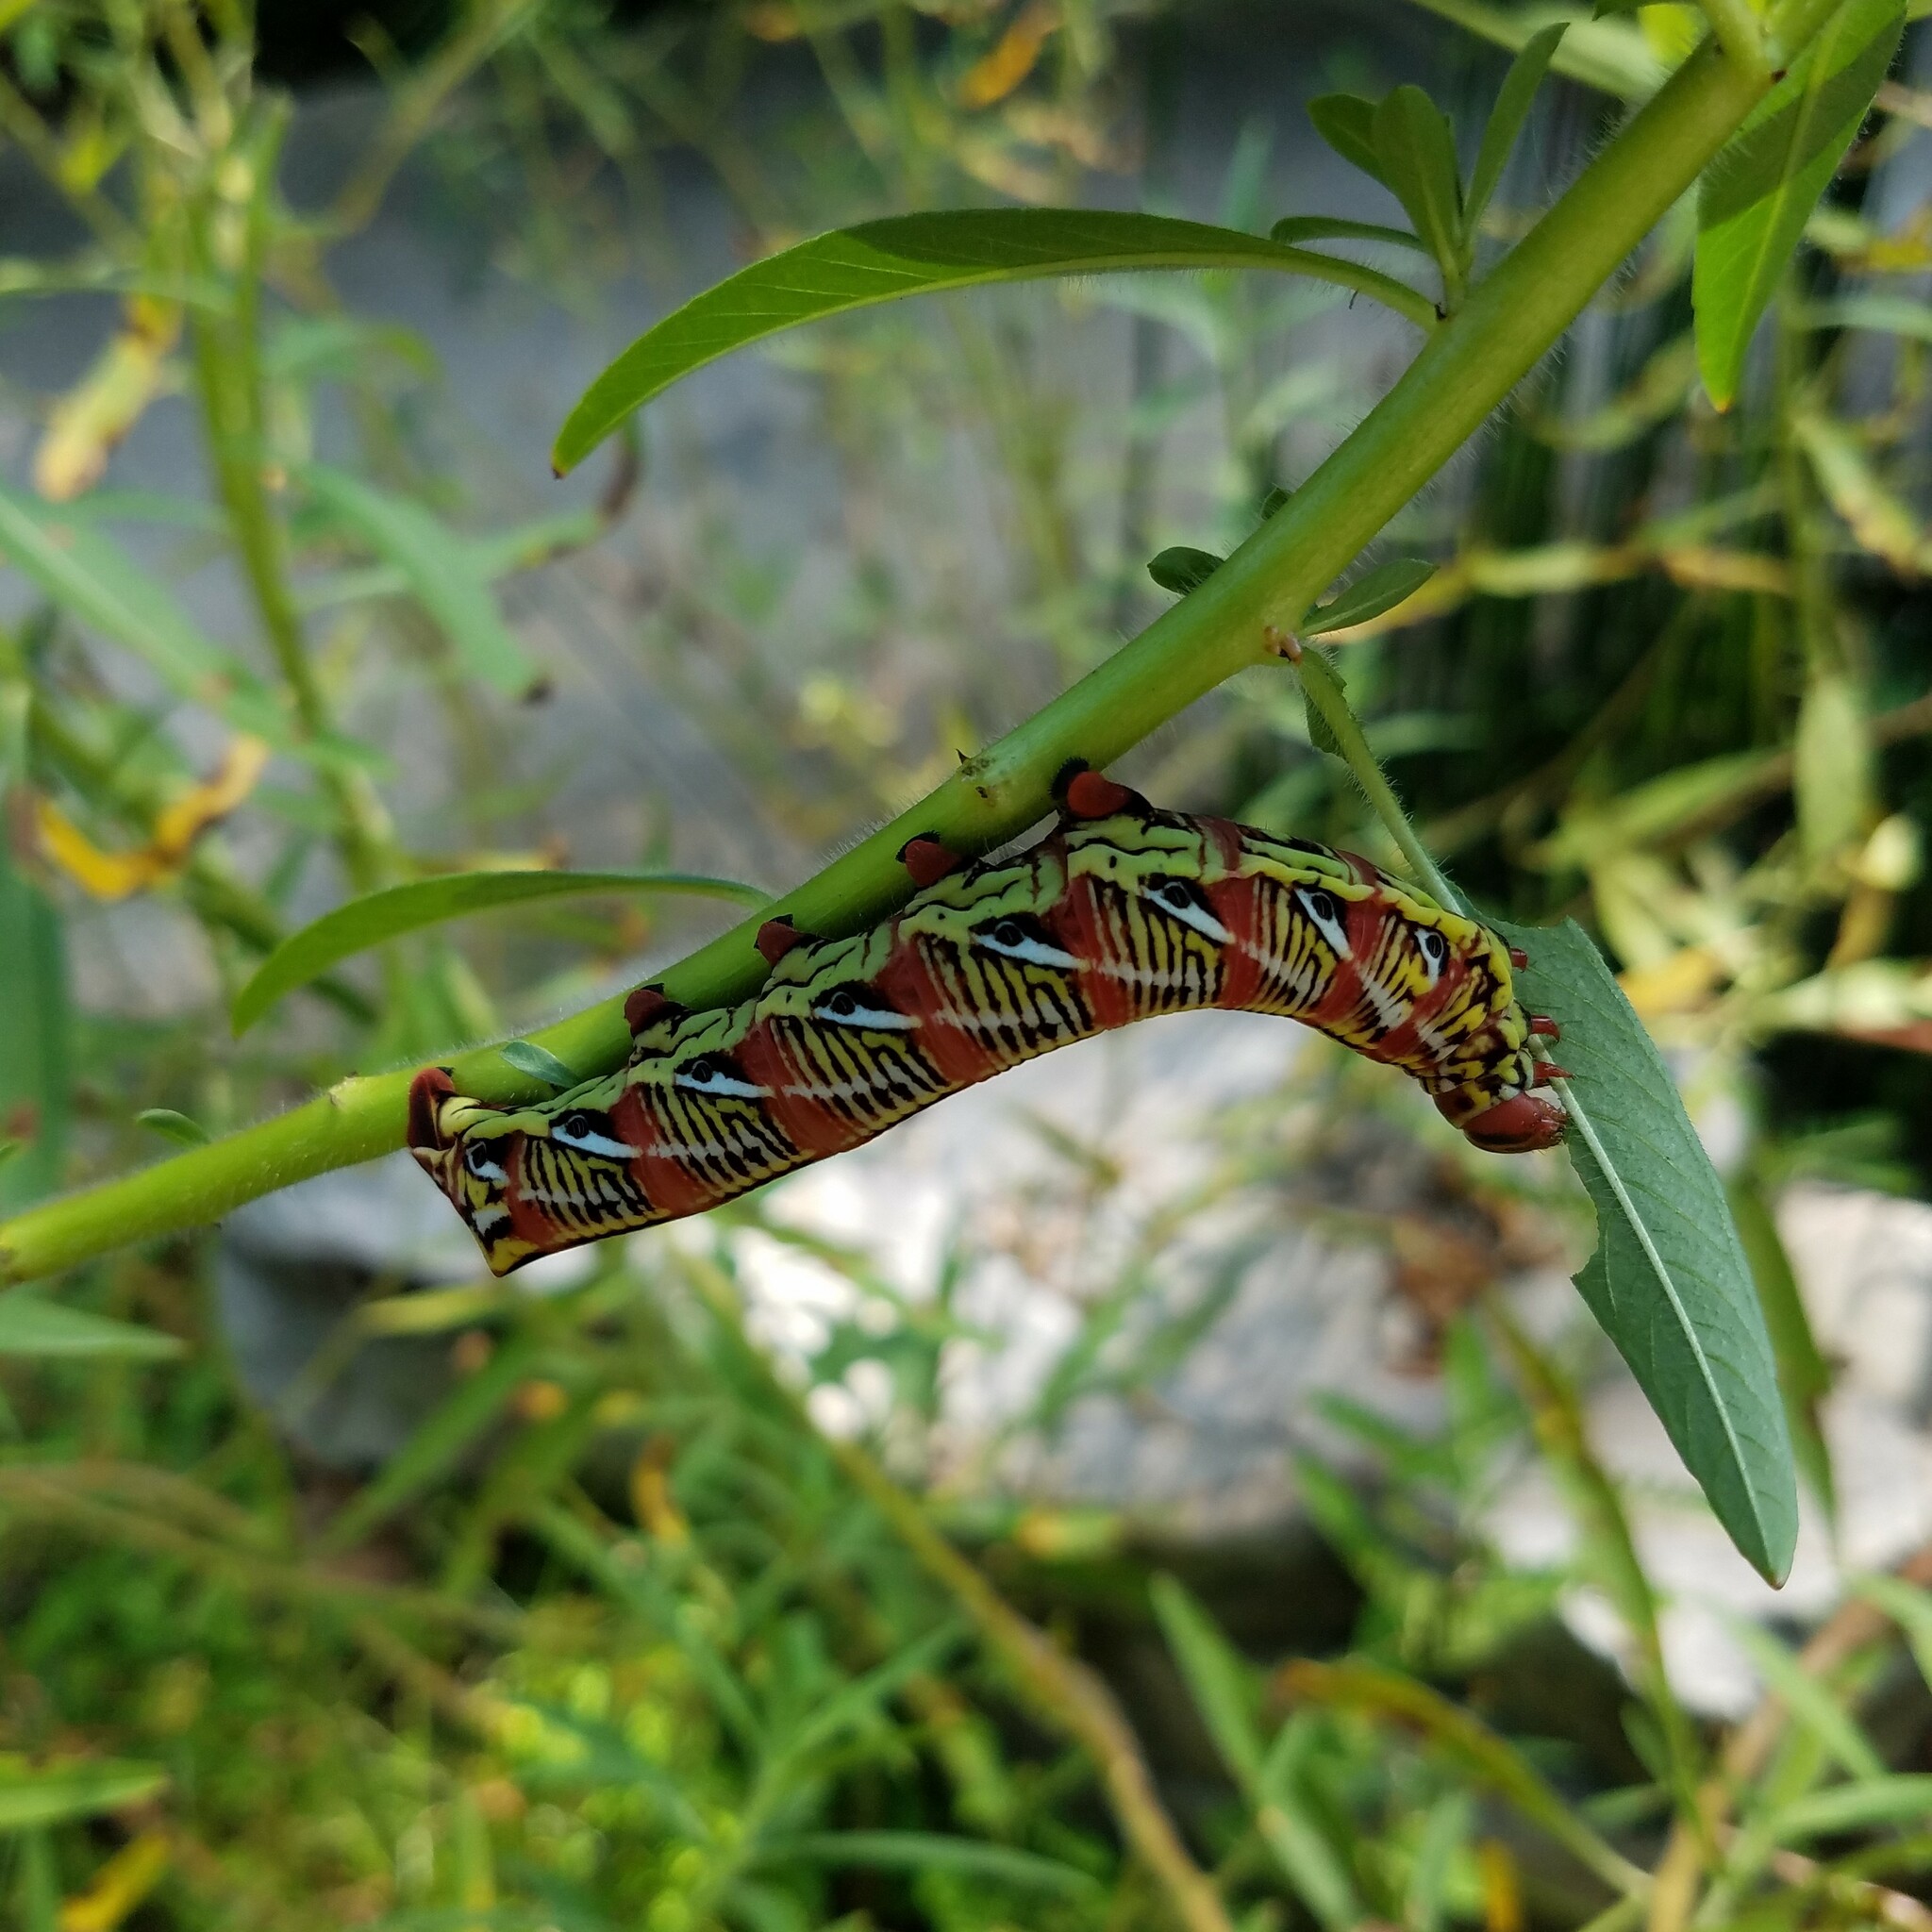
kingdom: Animalia
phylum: Arthropoda
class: Insecta
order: Lepidoptera
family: Sphingidae
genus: Eumorpha
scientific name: Eumorpha fasciatus
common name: Banded sphinx
